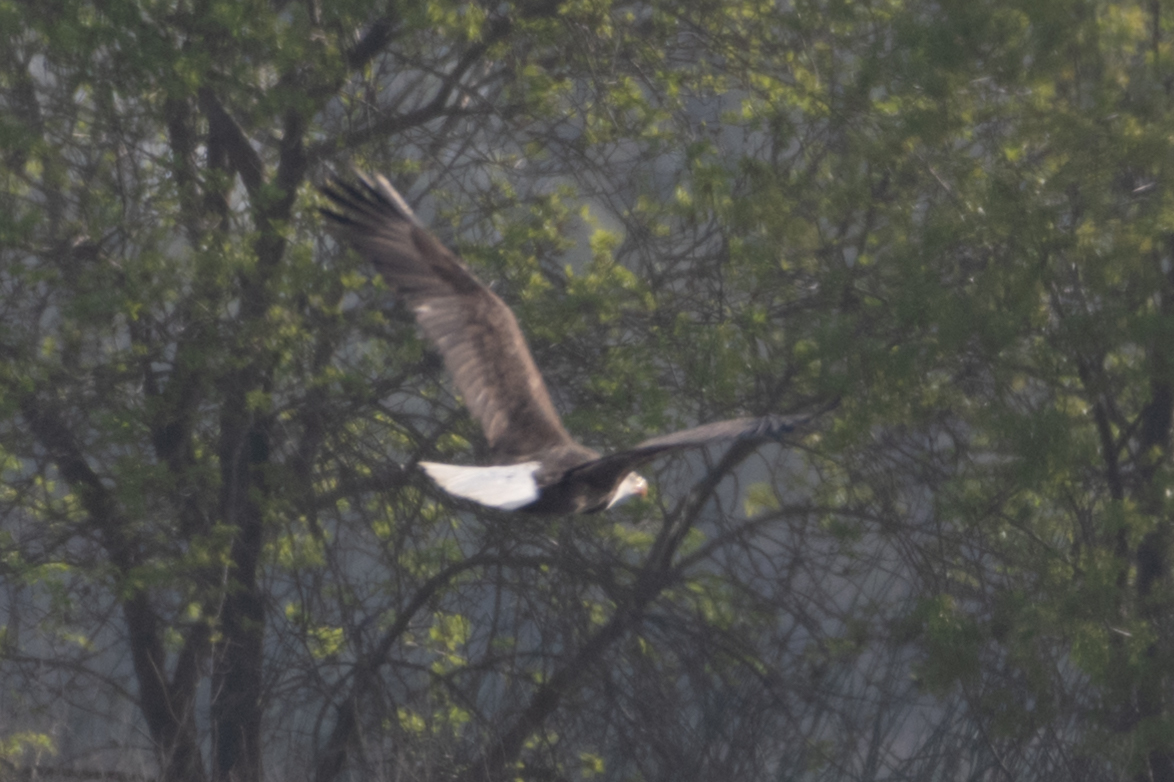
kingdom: Animalia
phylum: Chordata
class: Aves
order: Accipitriformes
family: Accipitridae
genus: Haliaeetus
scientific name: Haliaeetus leucocephalus
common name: Bald eagle
